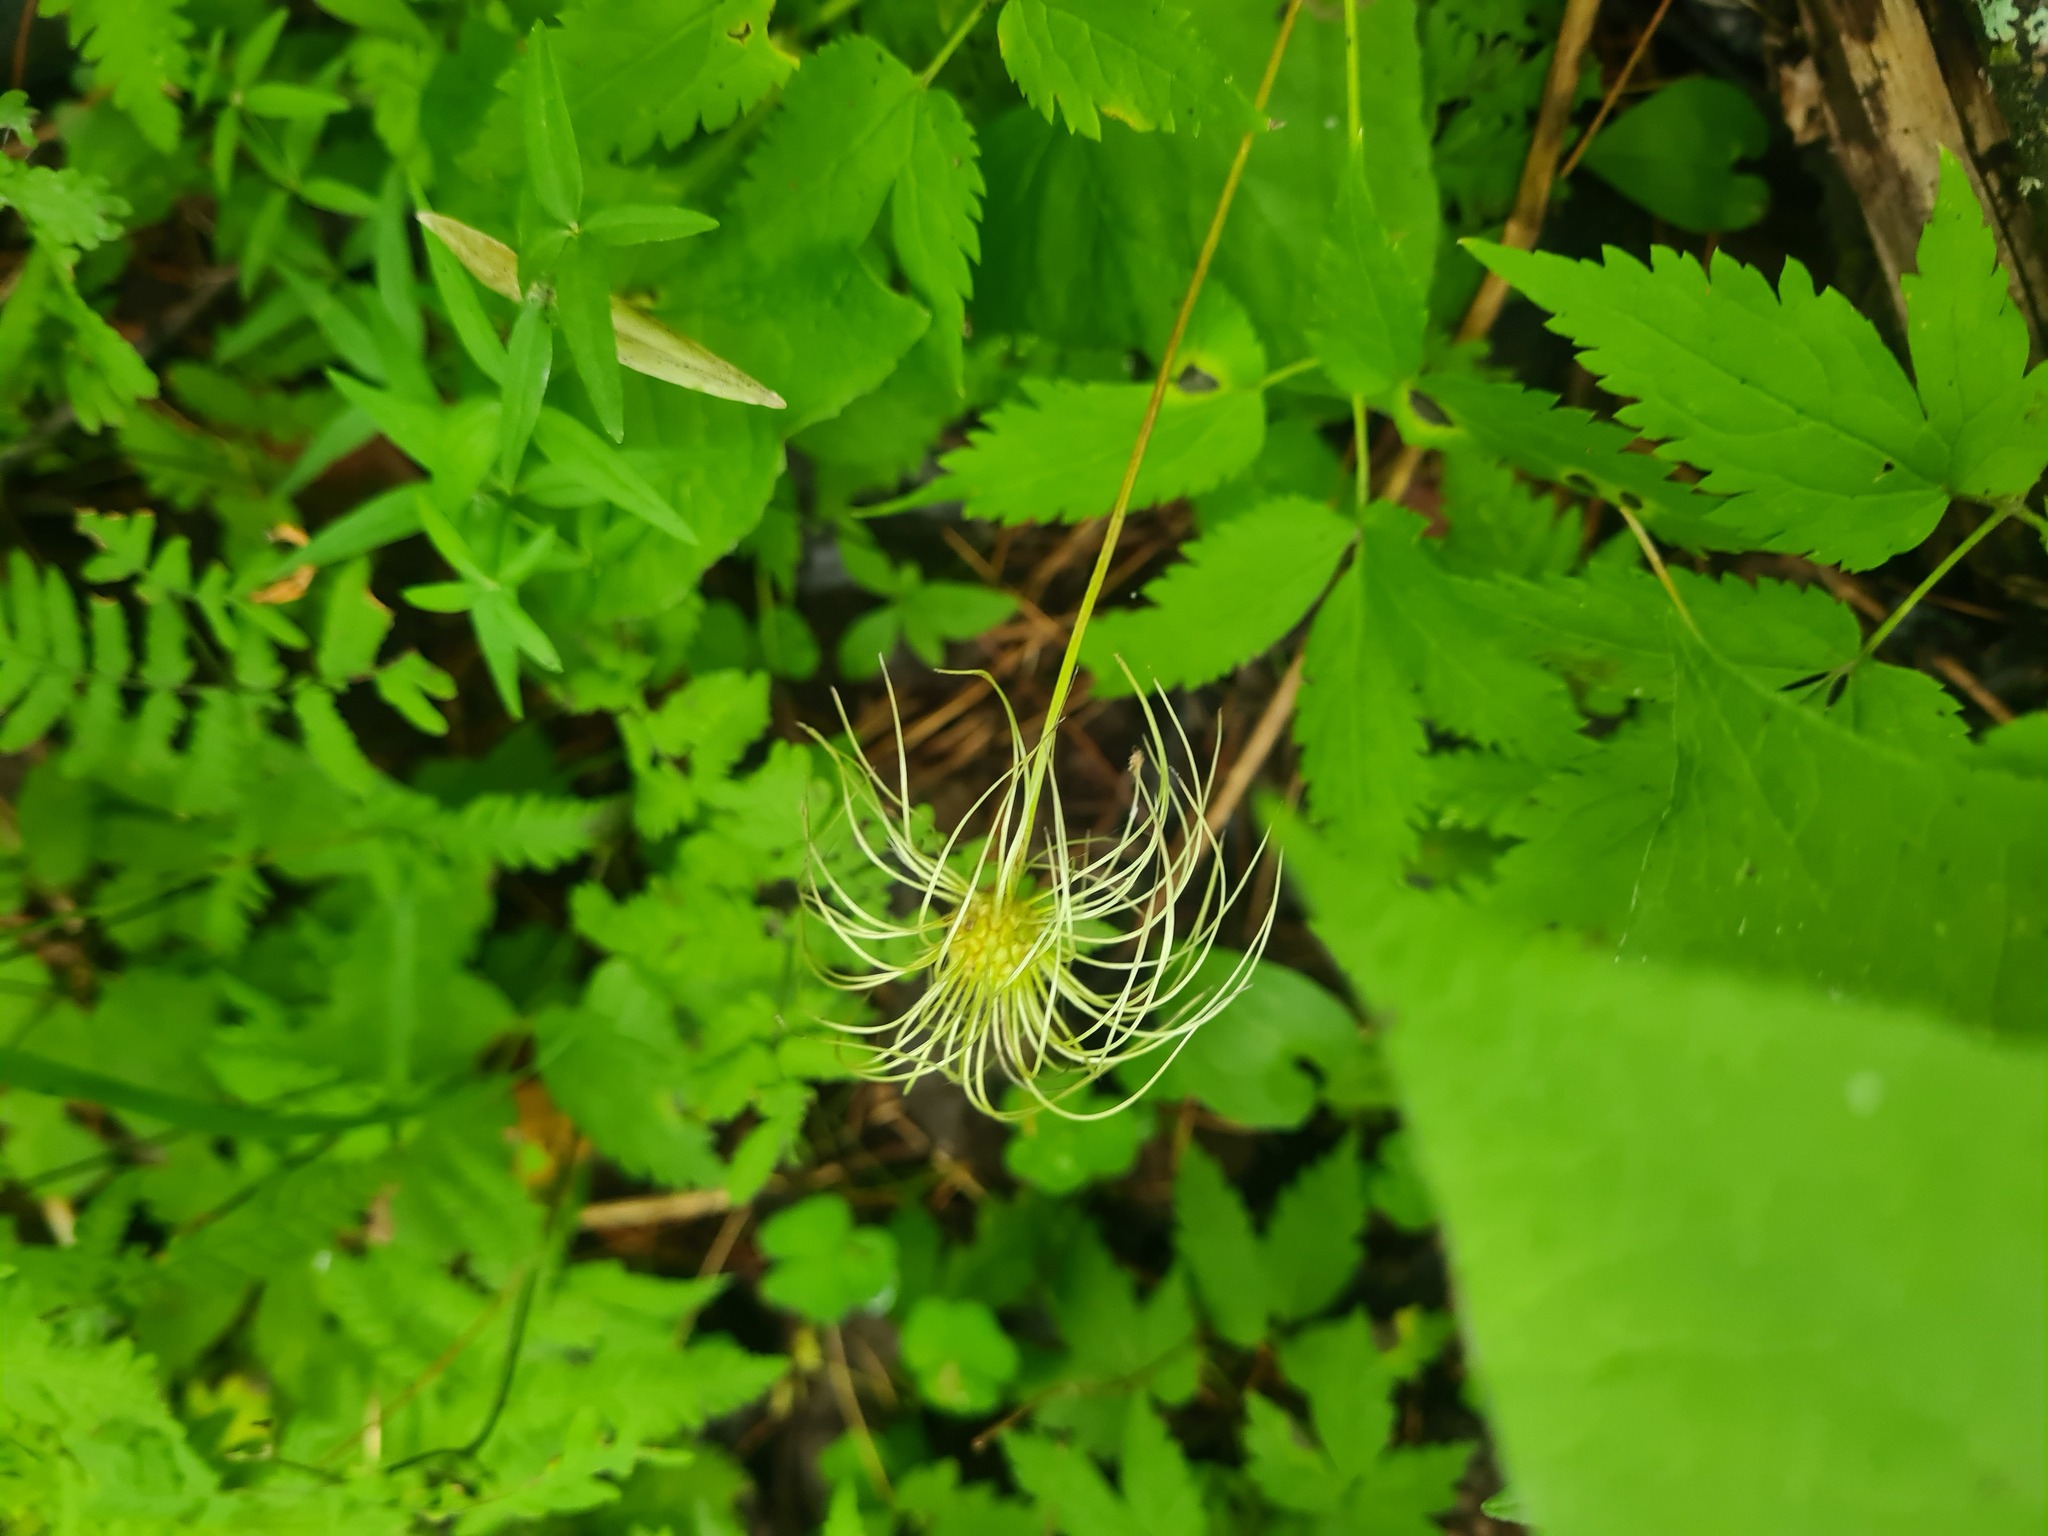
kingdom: Plantae
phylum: Tracheophyta
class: Magnoliopsida
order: Ranunculales
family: Ranunculaceae
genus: Clematis
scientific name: Clematis sibirica
